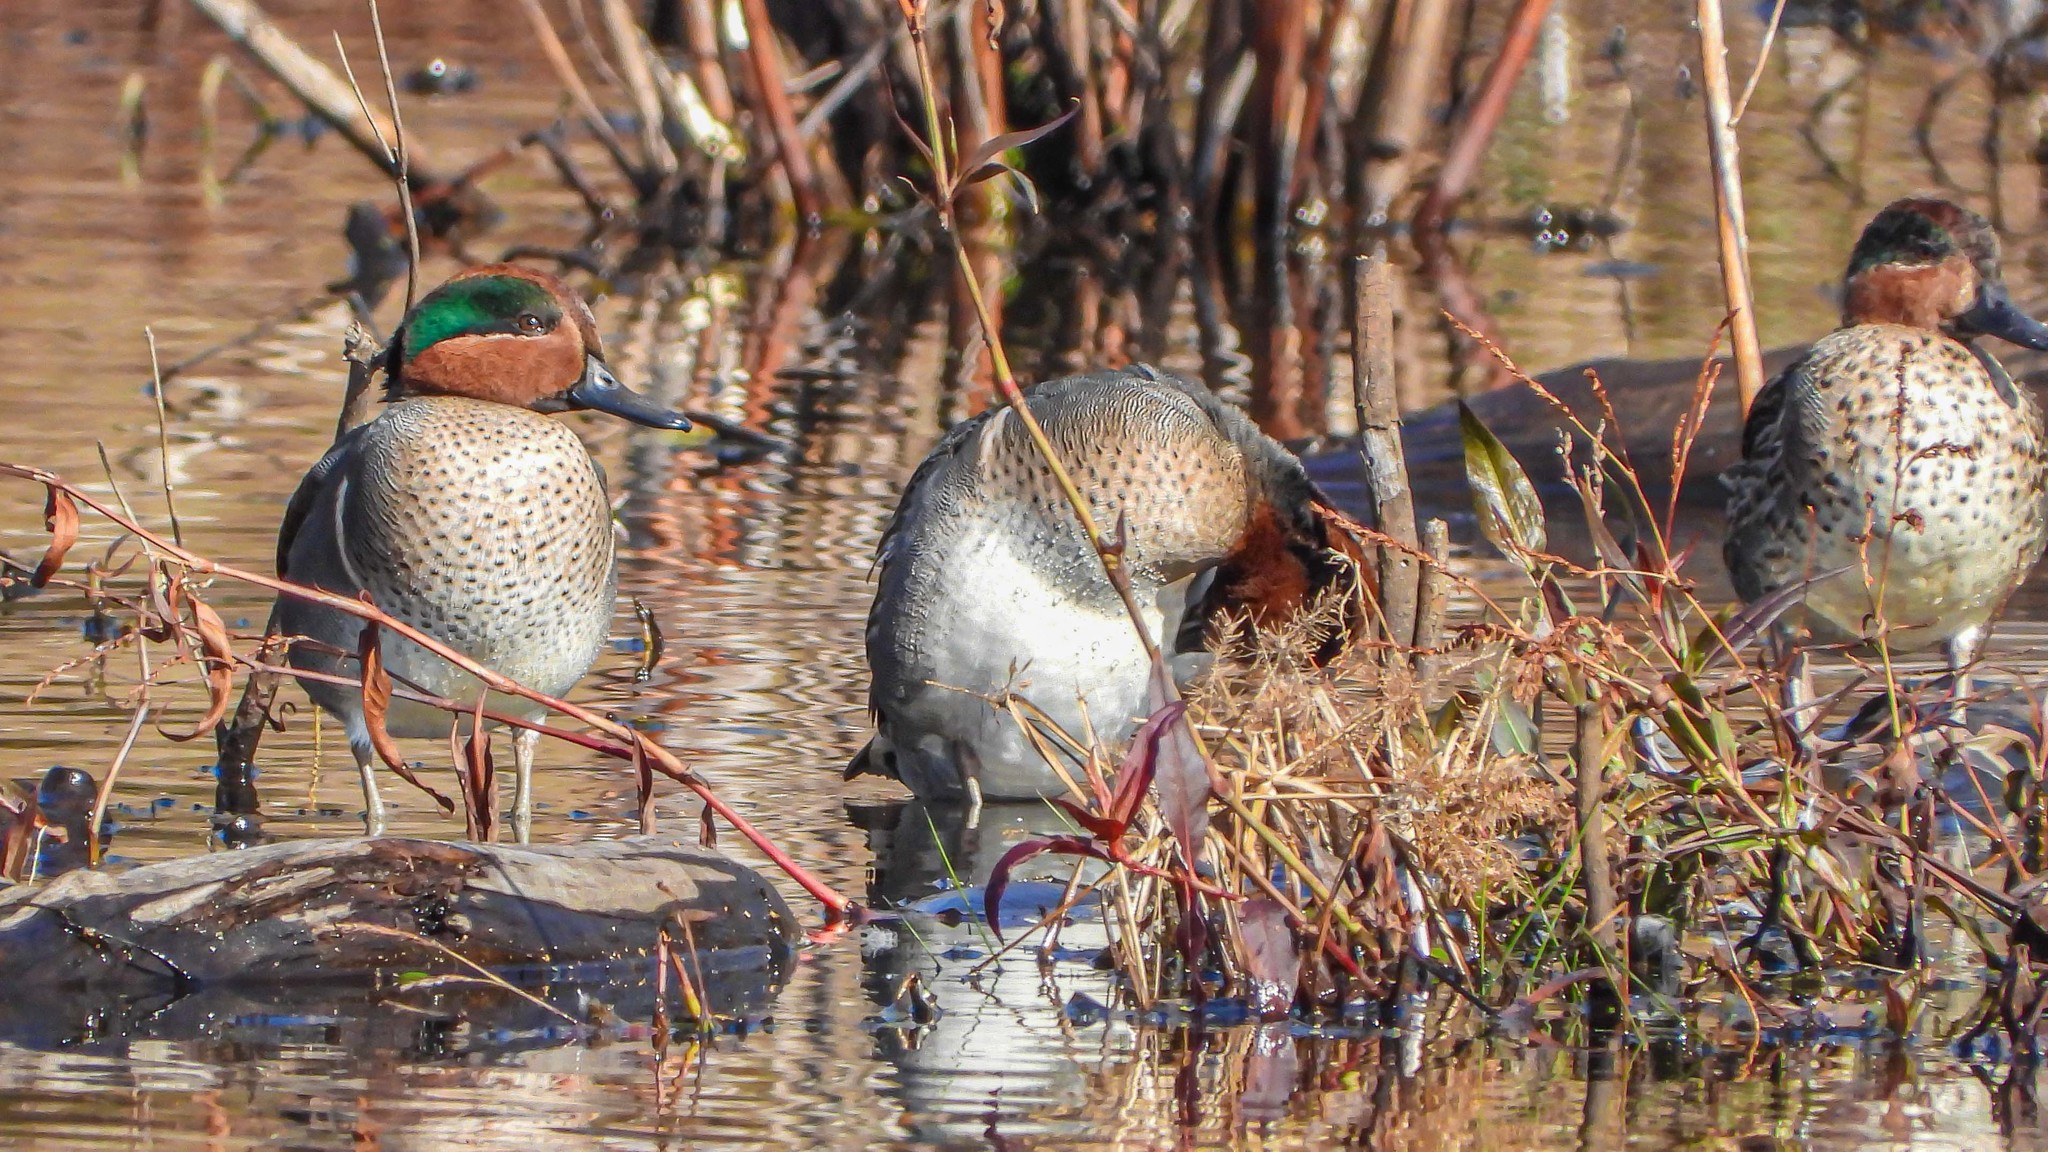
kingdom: Animalia
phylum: Chordata
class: Aves
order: Anseriformes
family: Anatidae
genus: Anas
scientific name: Anas crecca
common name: Eurasian teal
